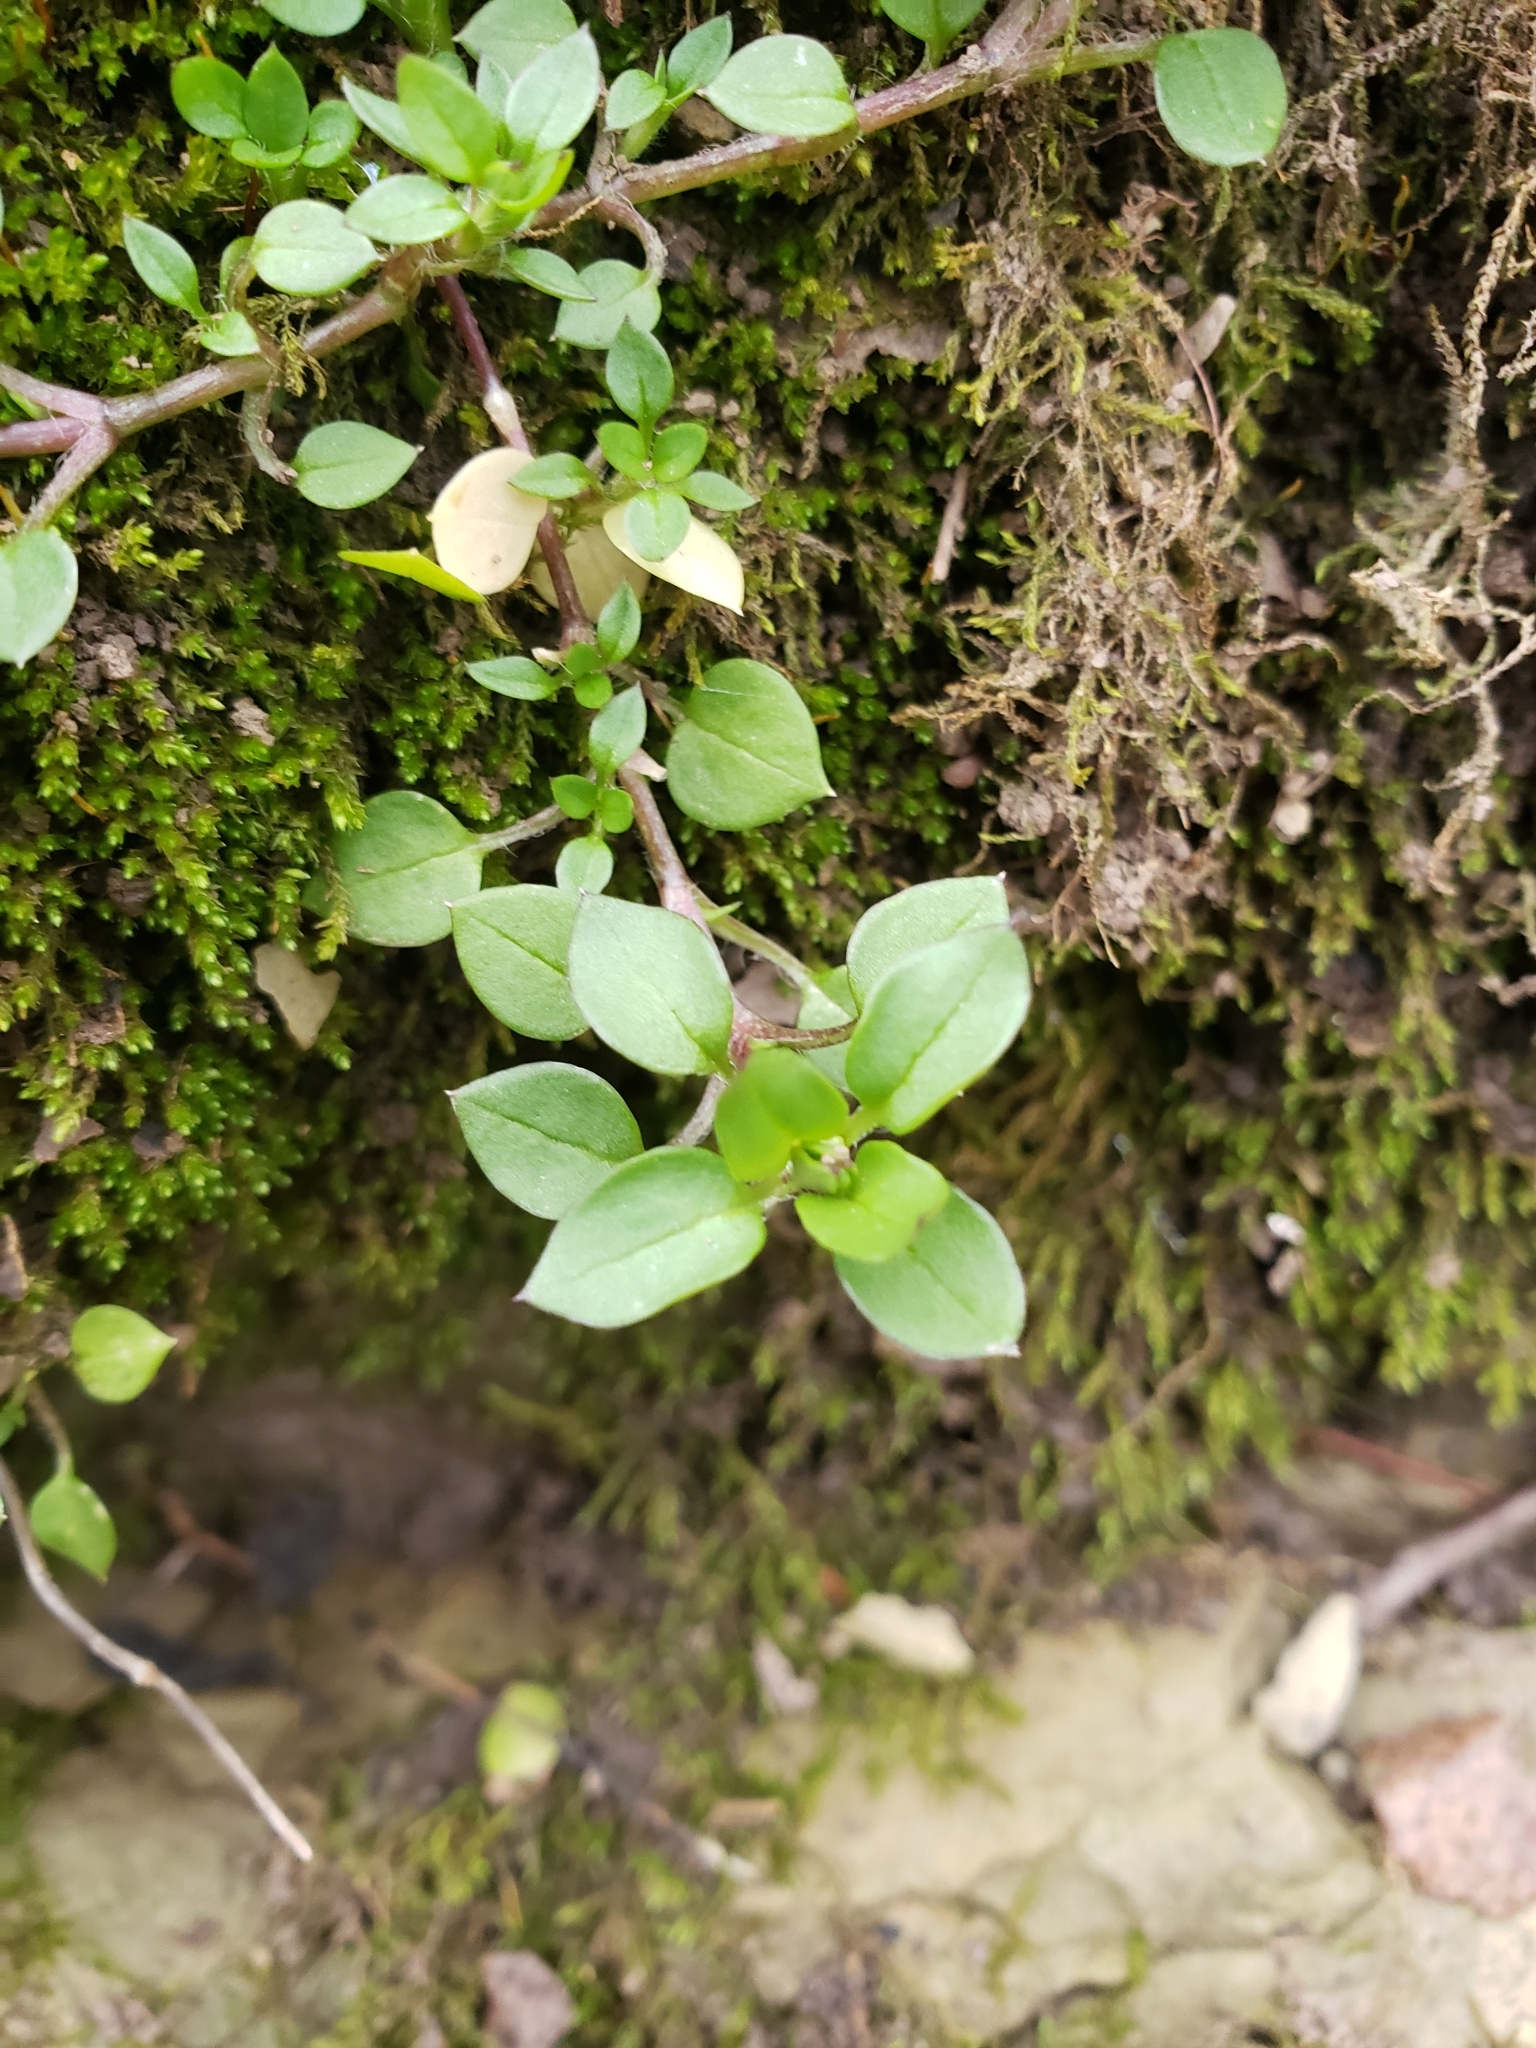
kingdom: Plantae
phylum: Tracheophyta
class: Magnoliopsida
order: Caryophyllales
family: Caryophyllaceae
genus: Stellaria
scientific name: Stellaria media
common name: Common chickweed
